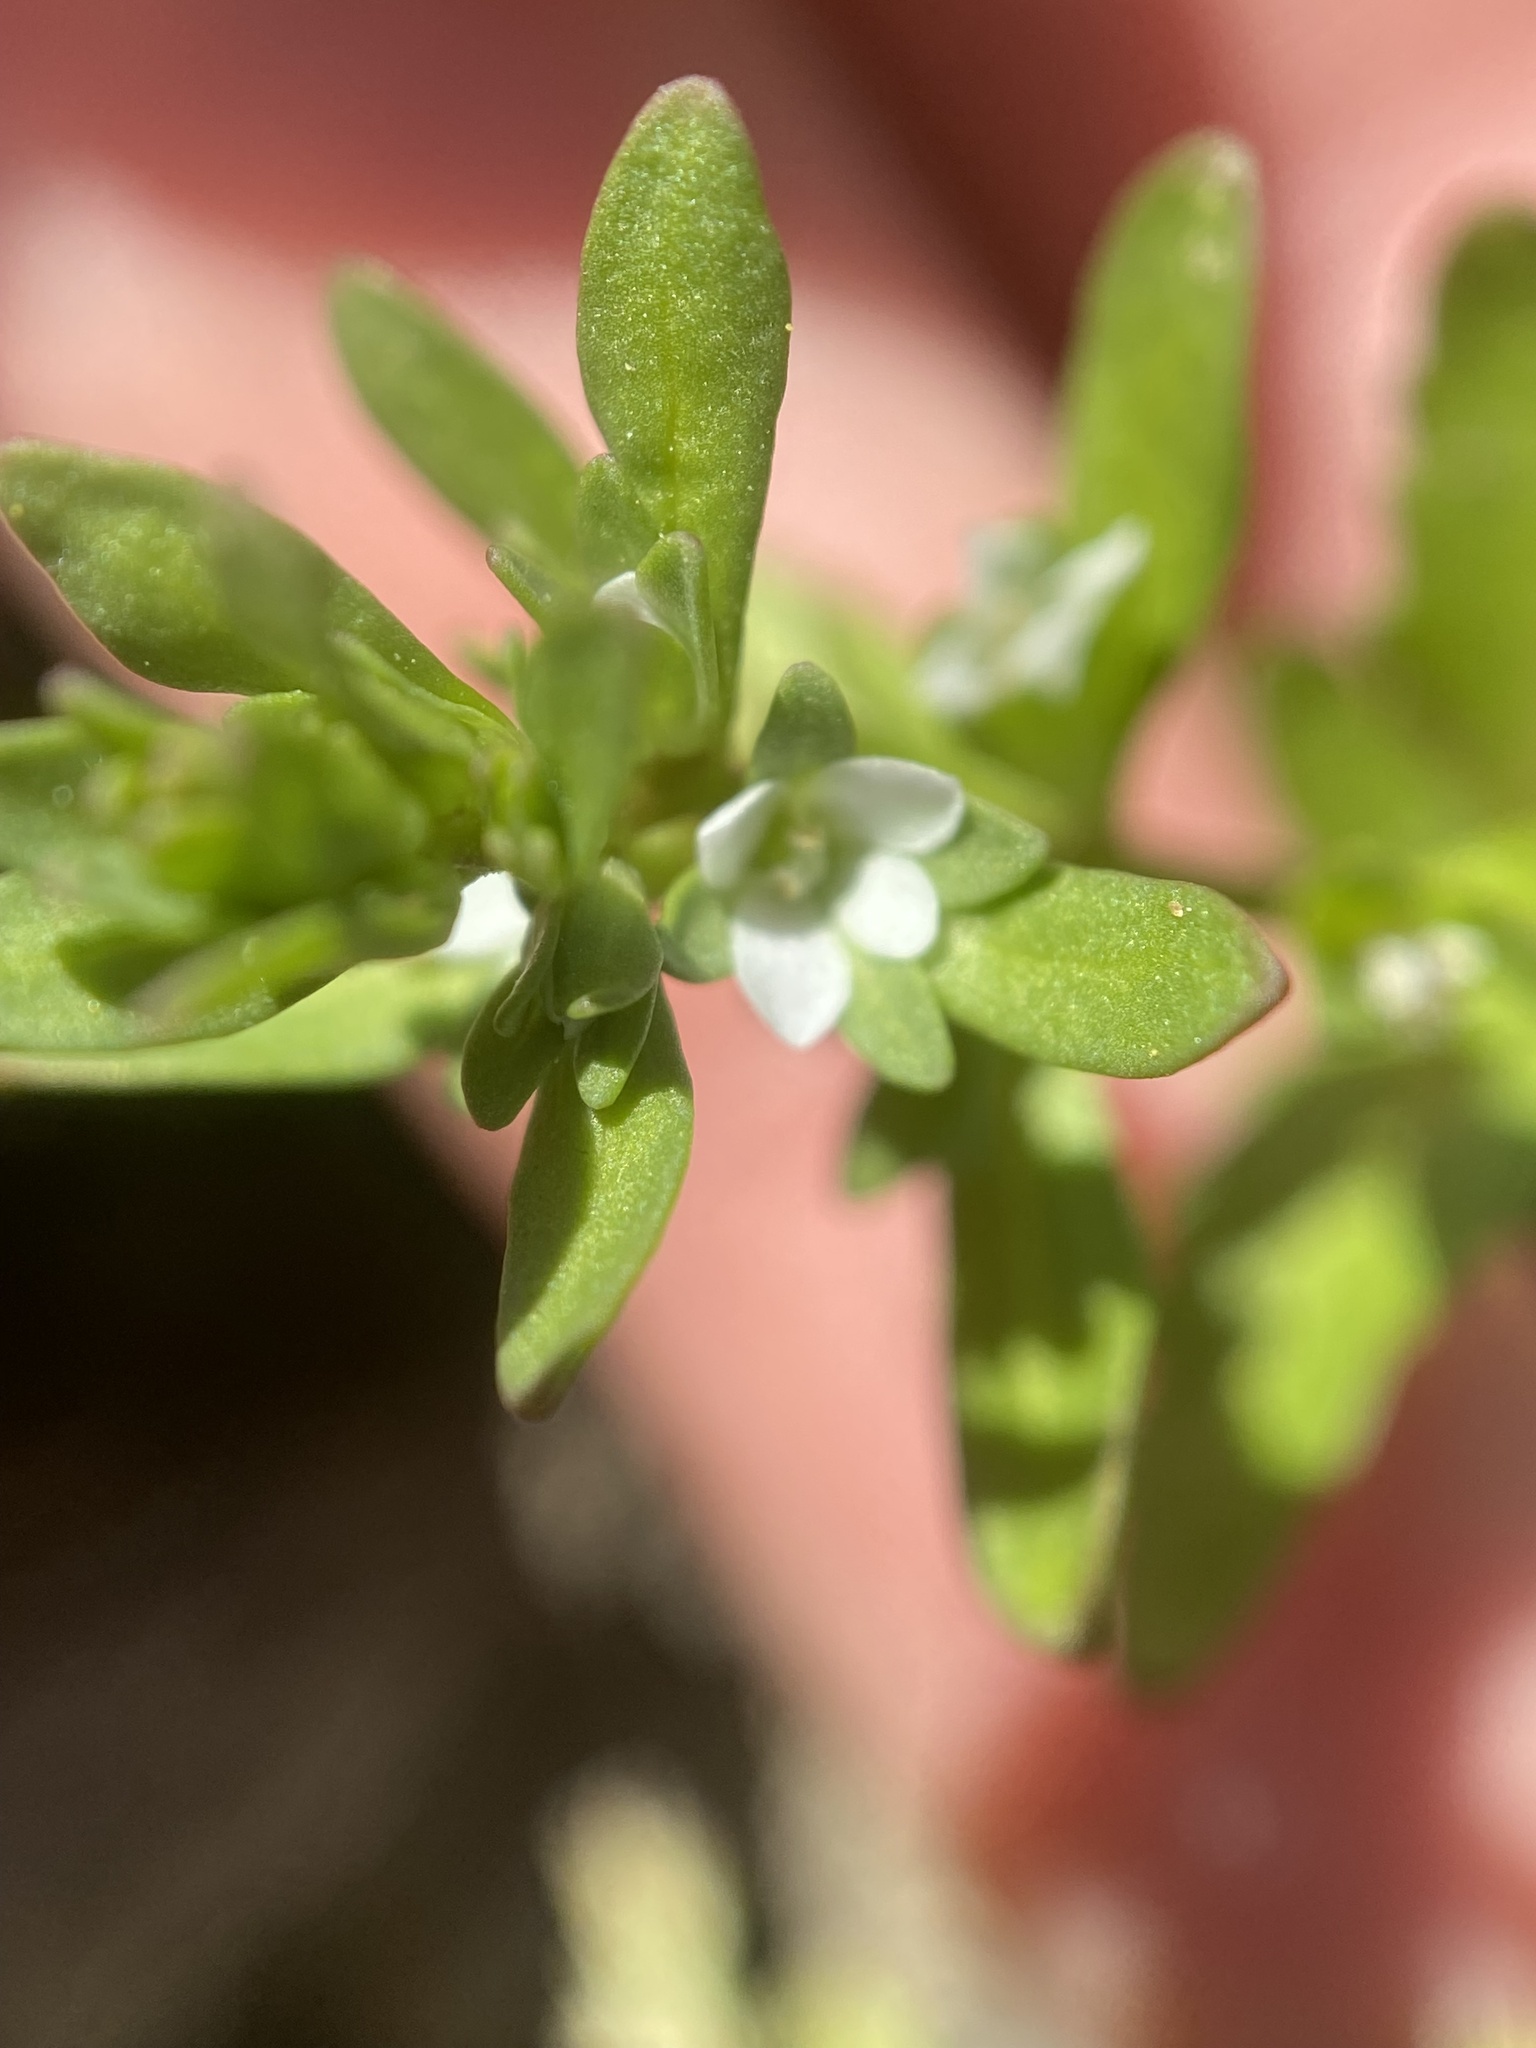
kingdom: Plantae
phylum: Tracheophyta
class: Magnoliopsida
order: Lamiales
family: Plantaginaceae
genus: Veronica
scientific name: Veronica peregrina
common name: Neckweed
